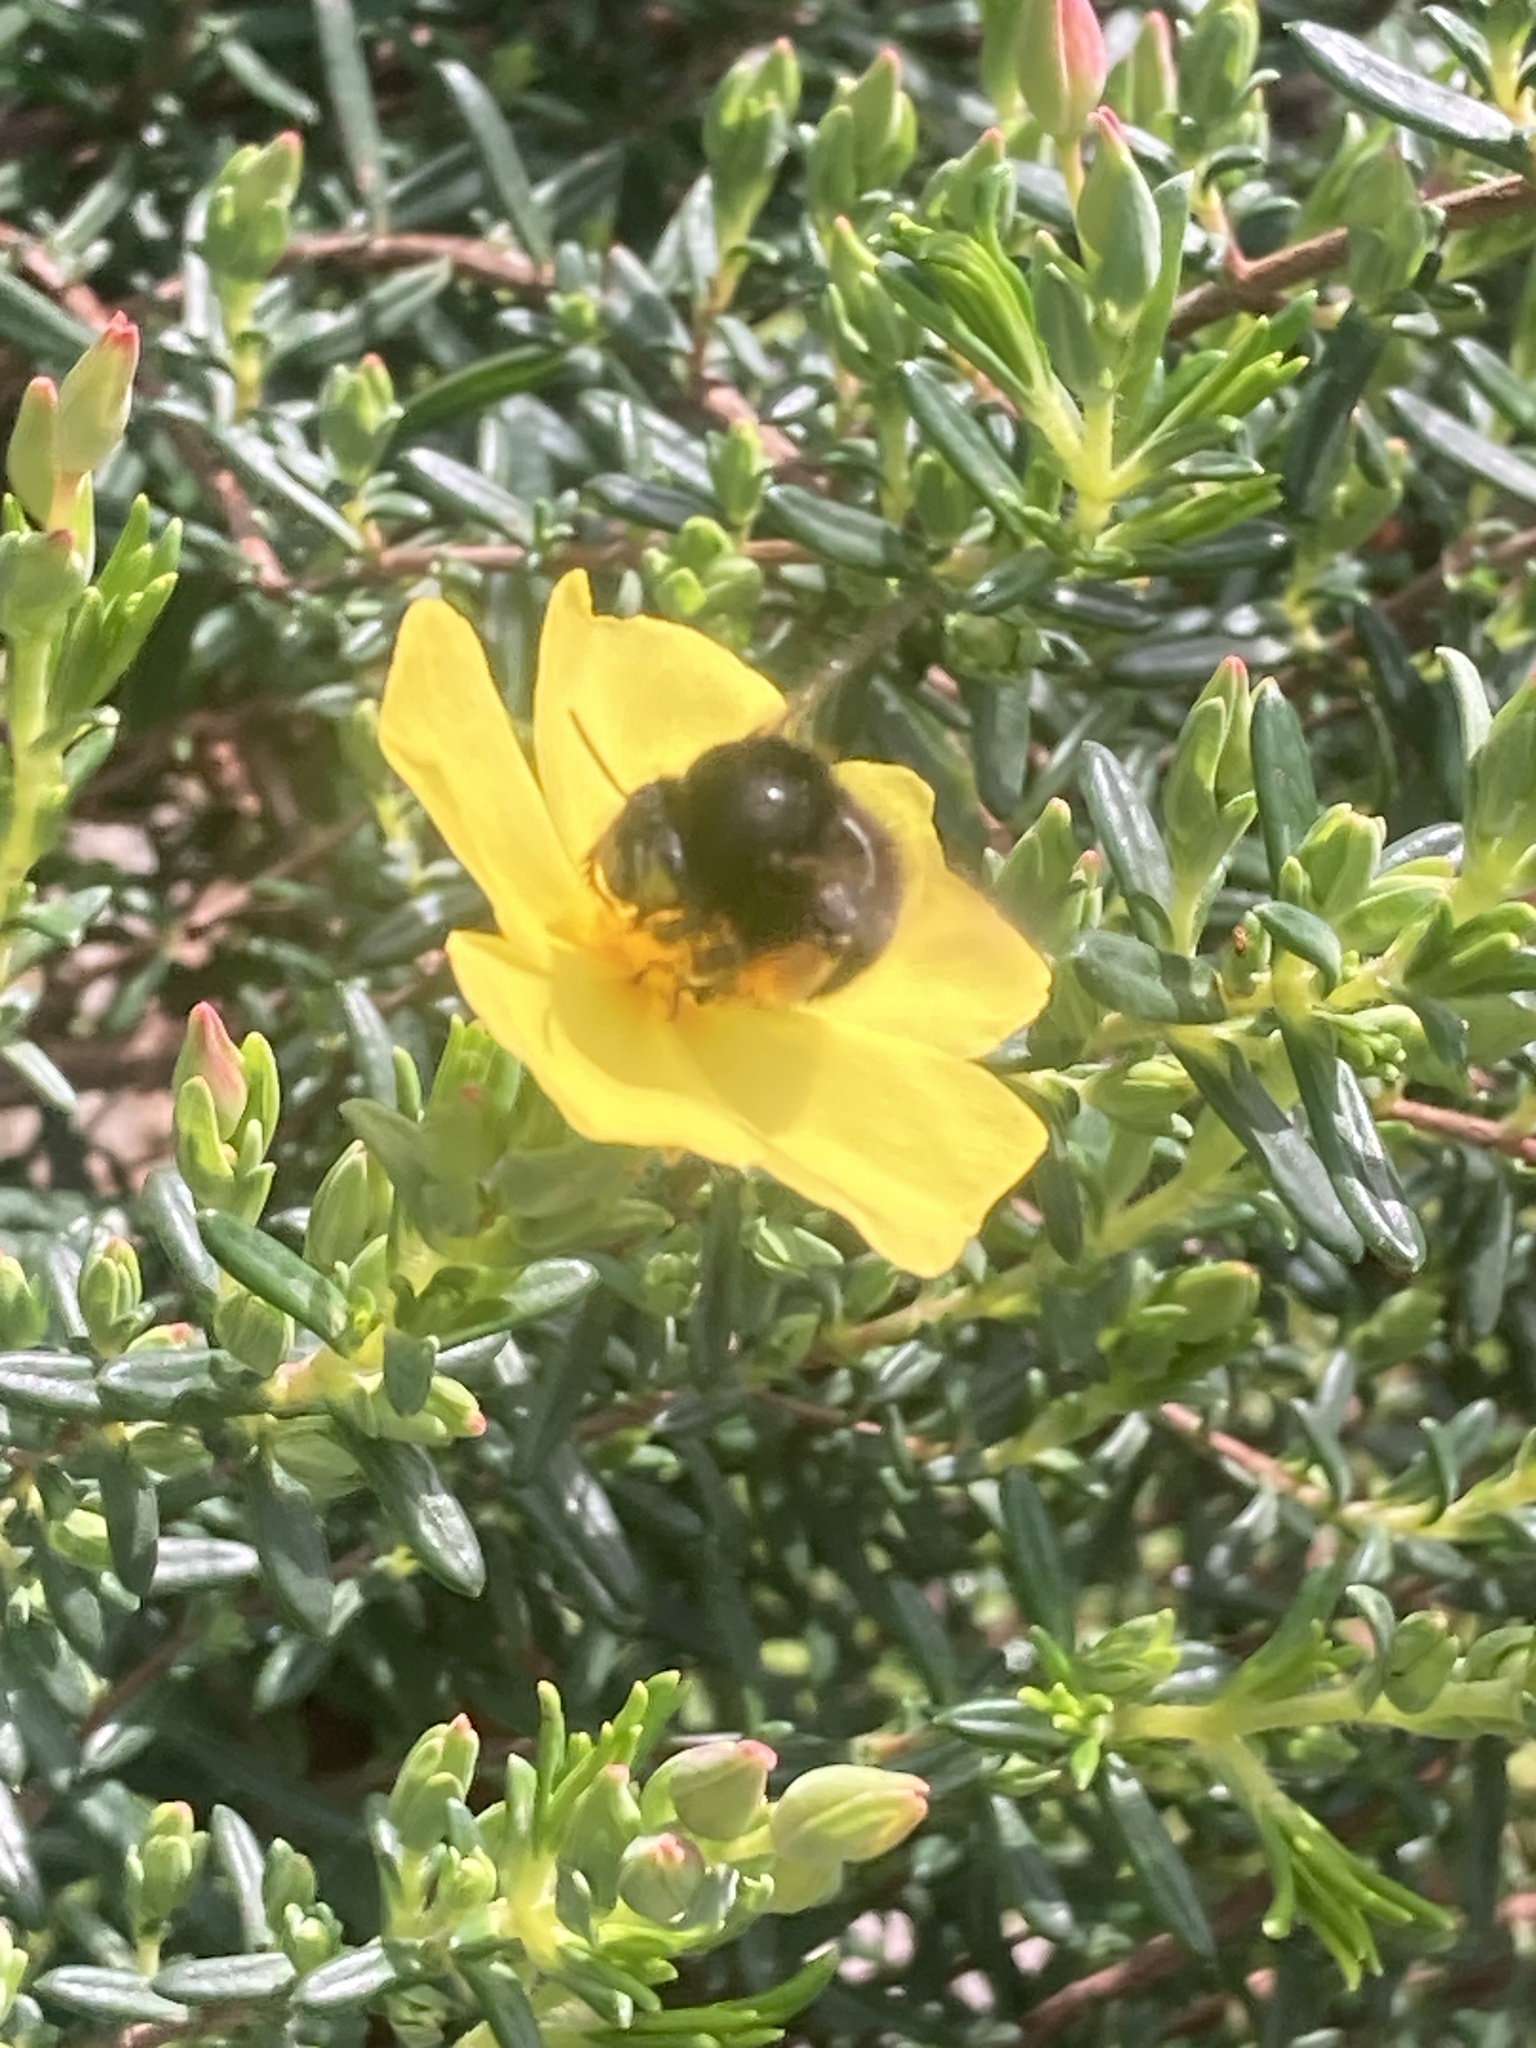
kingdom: Animalia
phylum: Arthropoda
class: Insecta
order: Hymenoptera
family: Apidae
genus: Anthophora
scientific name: Anthophora plumipes
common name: Hairy-footed flower bee
